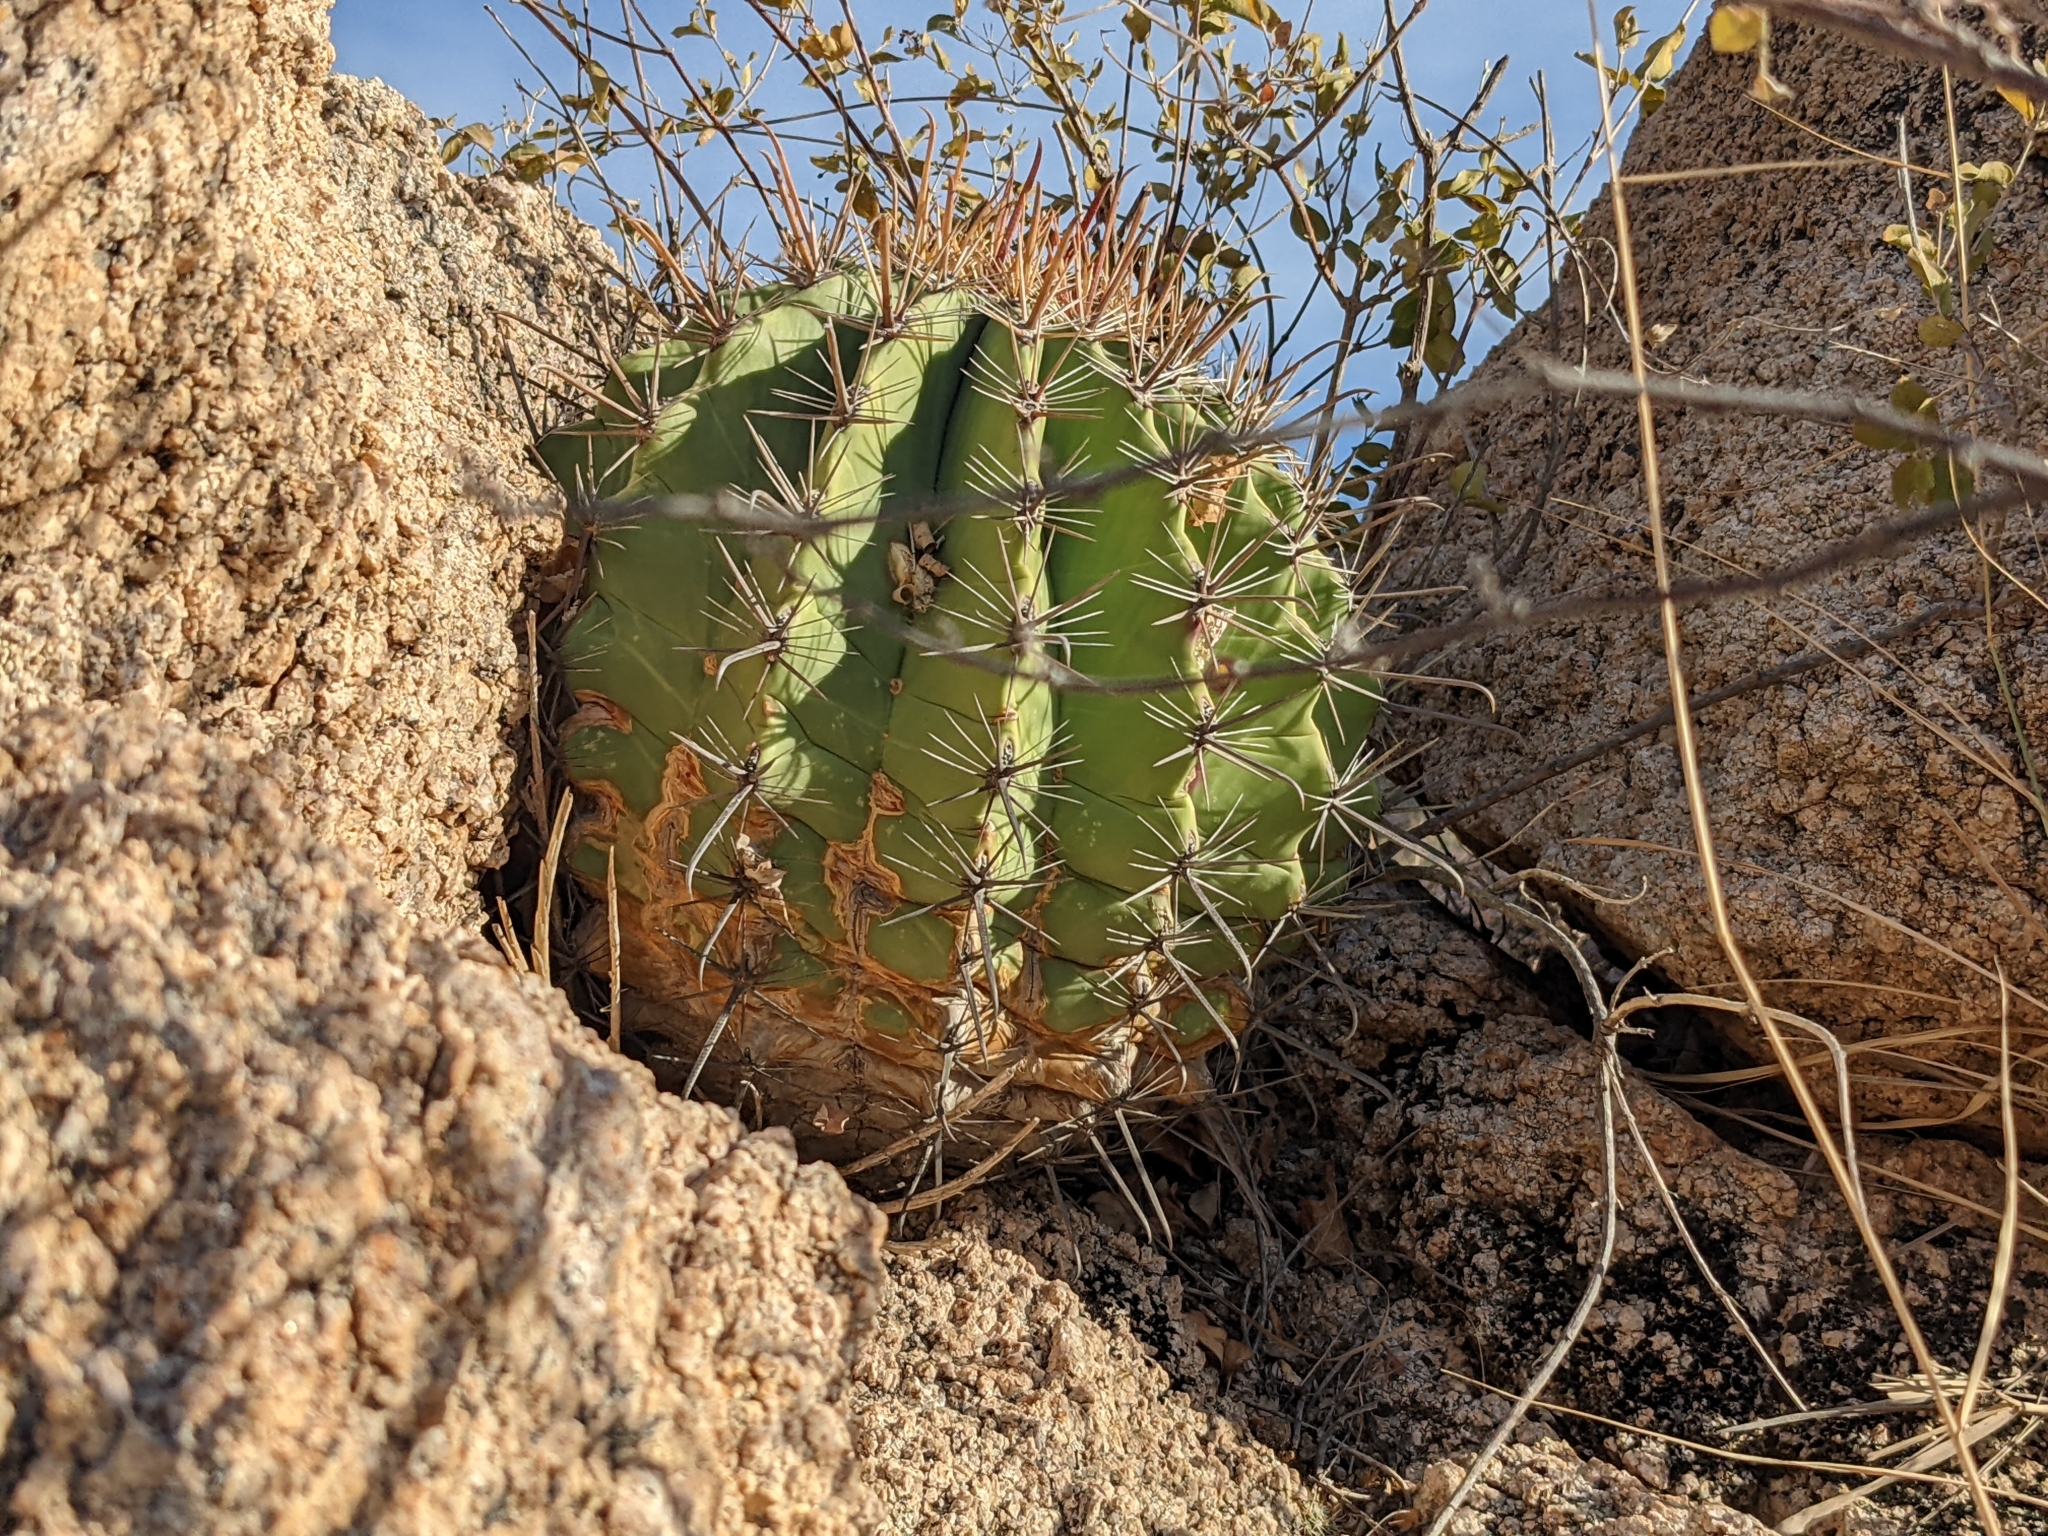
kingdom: Plantae
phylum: Tracheophyta
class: Magnoliopsida
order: Caryophyllales
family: Cactaceae
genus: Ferocactus
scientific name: Ferocactus townsendianus
